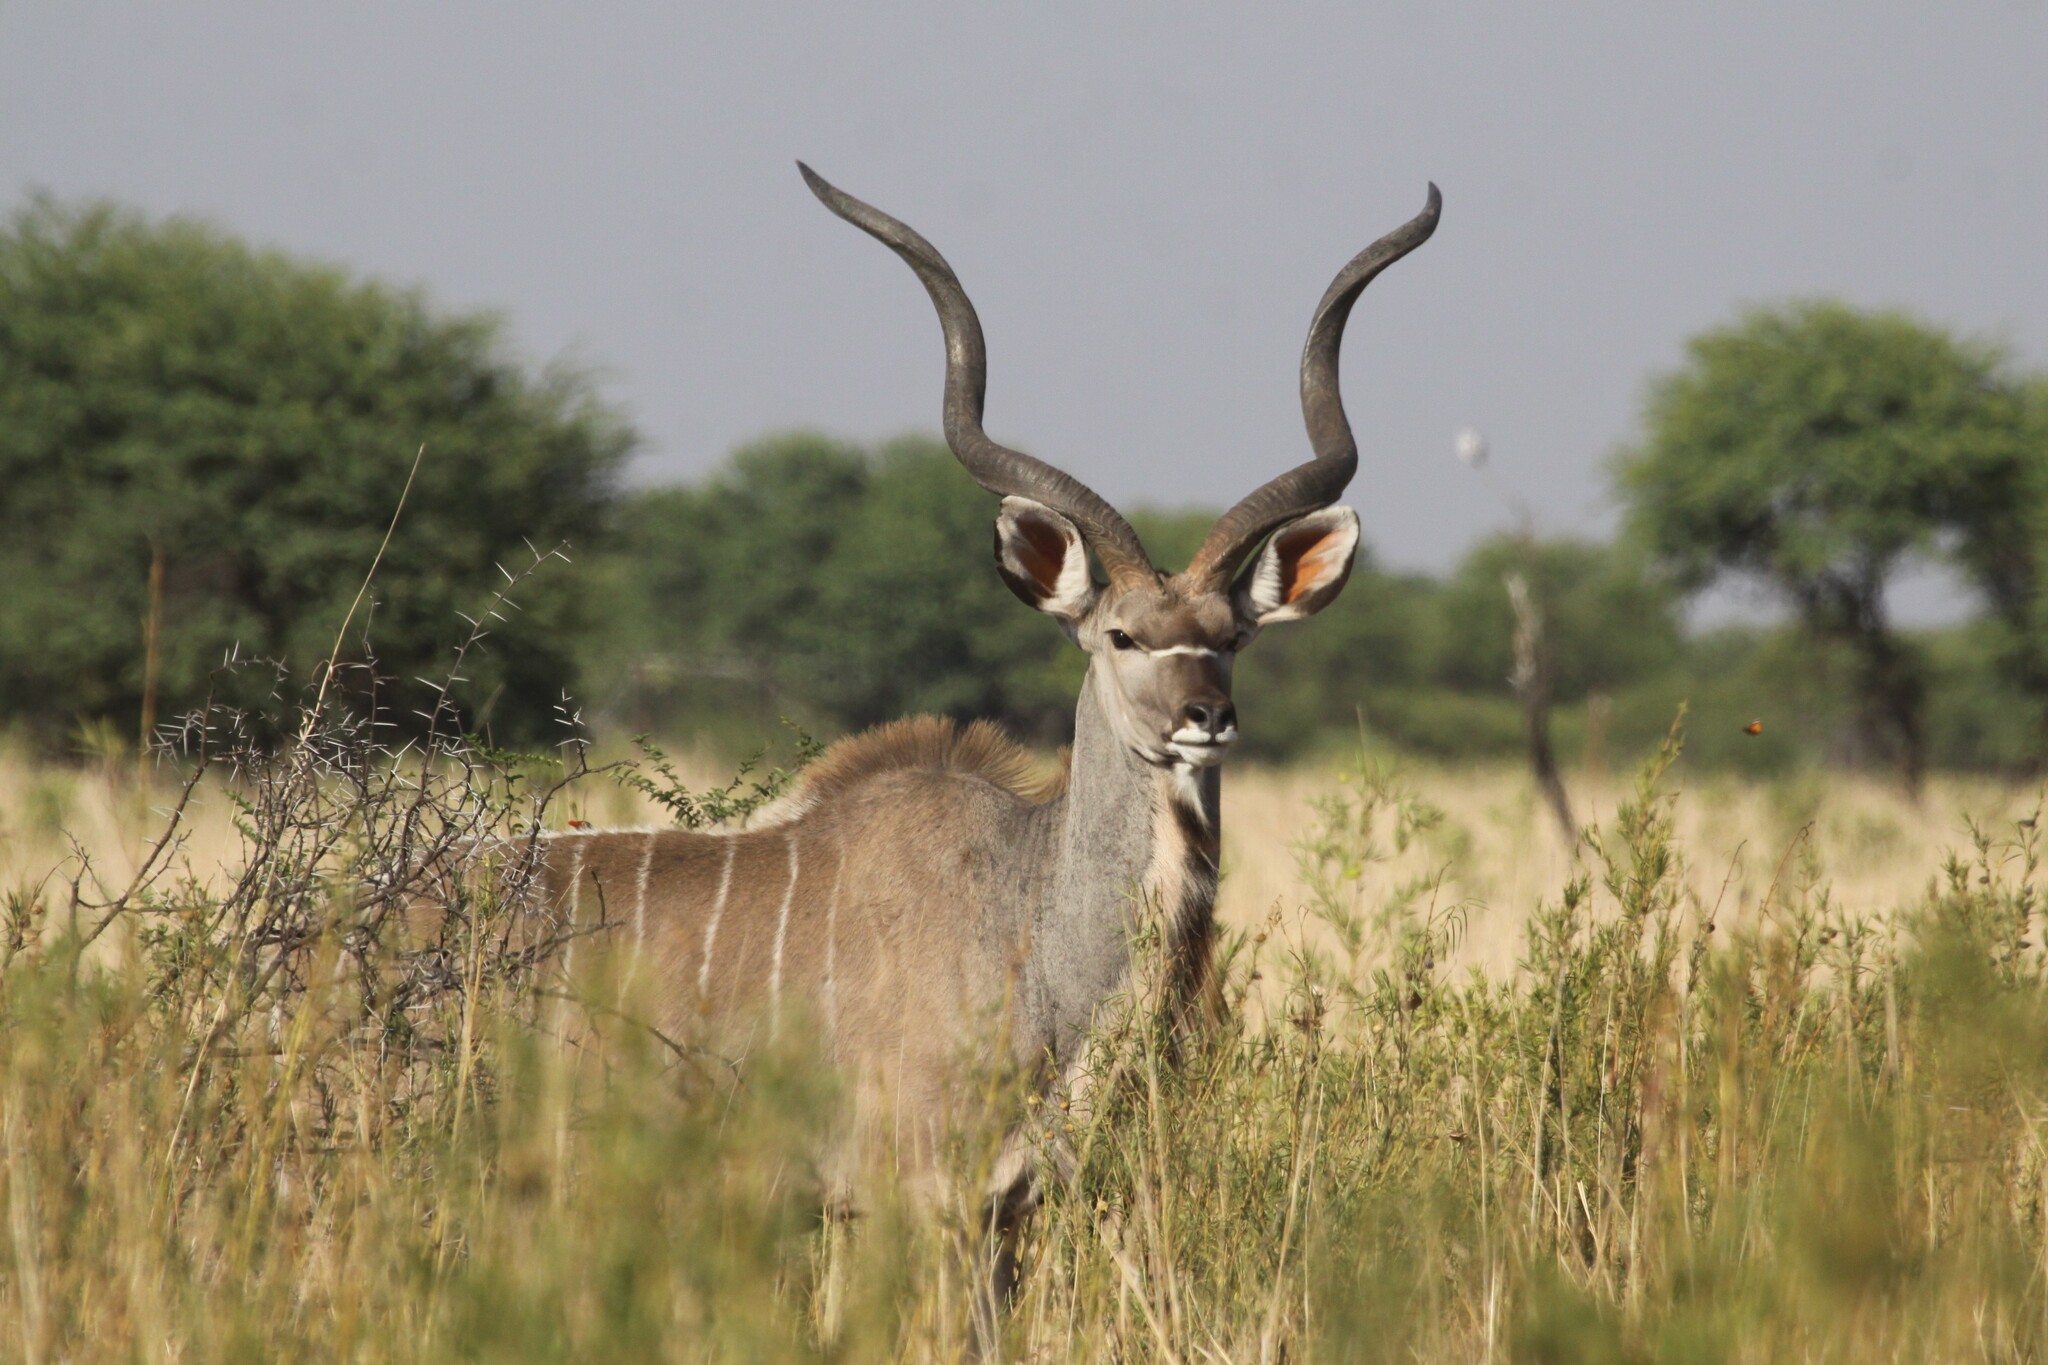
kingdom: Animalia
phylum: Chordata
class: Mammalia
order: Artiodactyla
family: Bovidae
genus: Tragelaphus
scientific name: Tragelaphus strepsiceros
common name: Greater kudu
